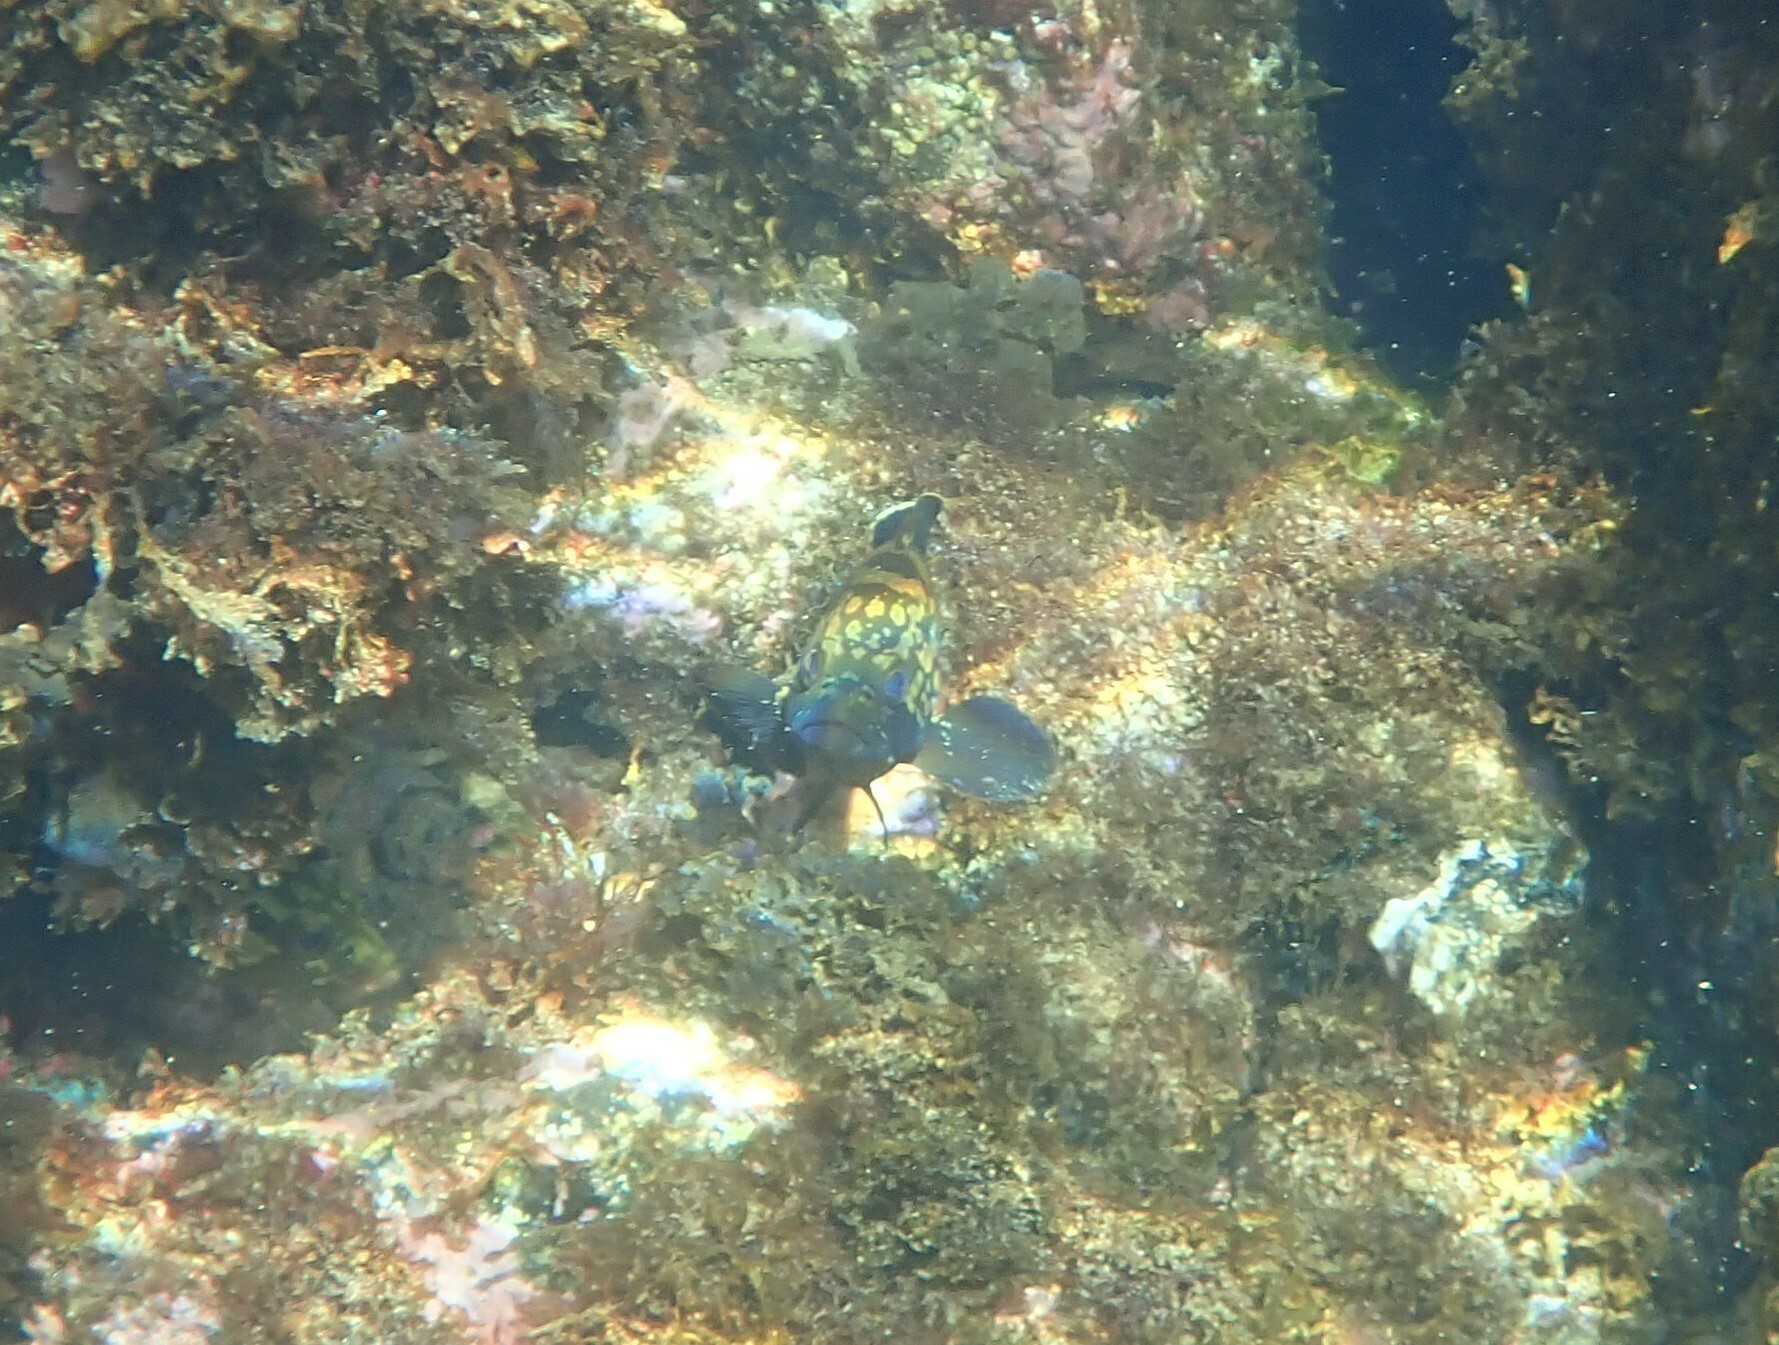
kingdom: Animalia
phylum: Chordata
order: Perciformes
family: Serranidae
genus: Epinephelus
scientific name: Epinephelus marginatus
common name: Dusky grouper
